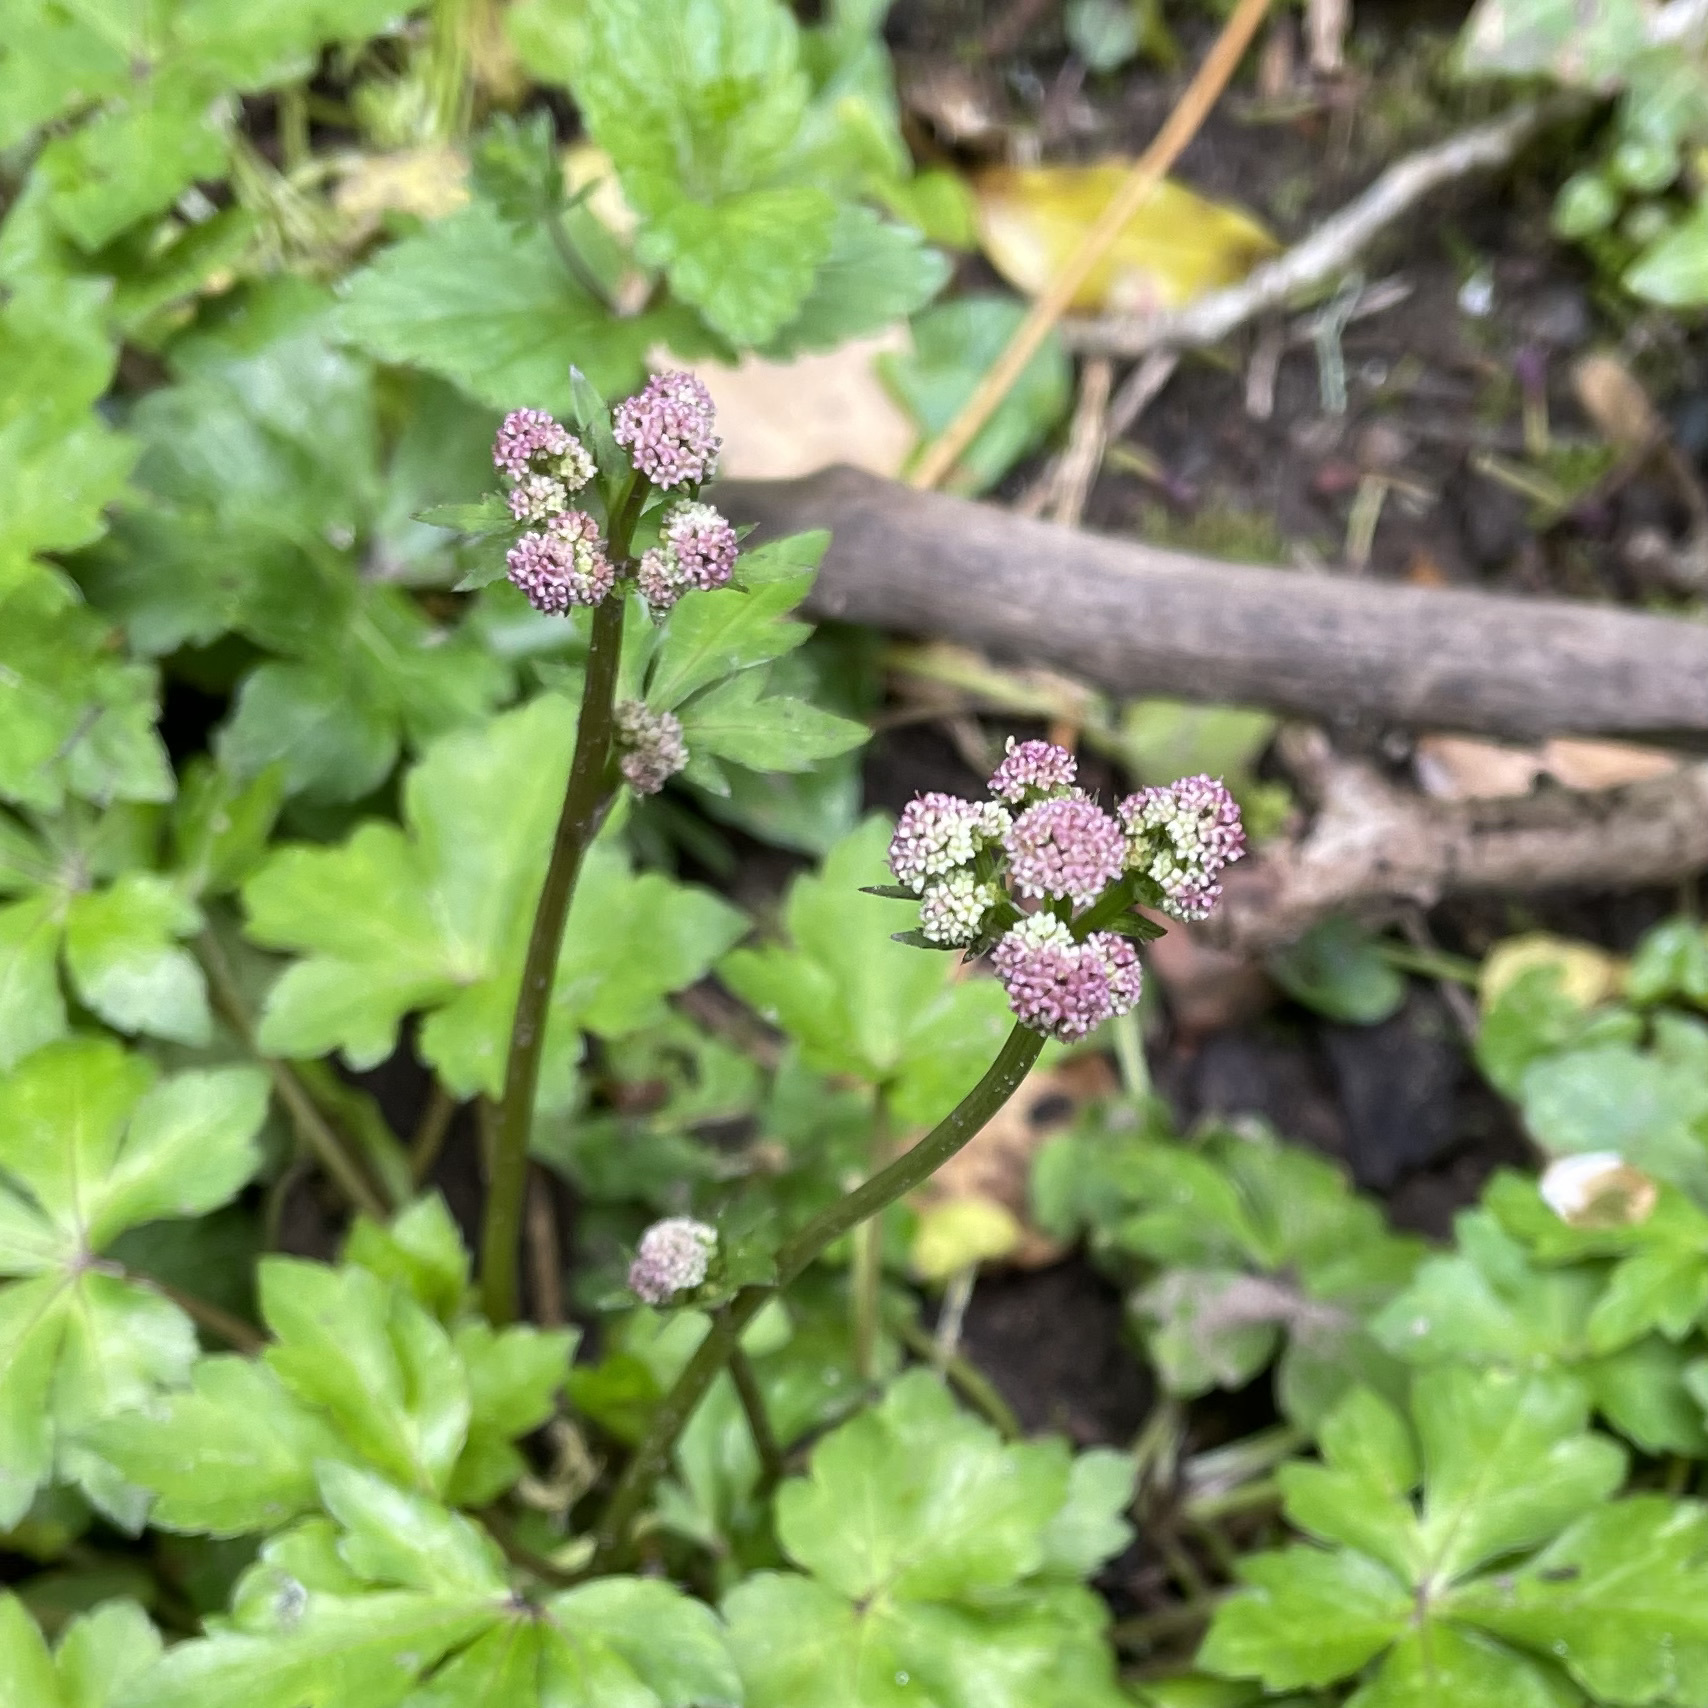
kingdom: Plantae
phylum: Tracheophyta
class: Magnoliopsida
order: Apiales
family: Apiaceae
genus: Sanicula
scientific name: Sanicula europaea
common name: Sanicle
